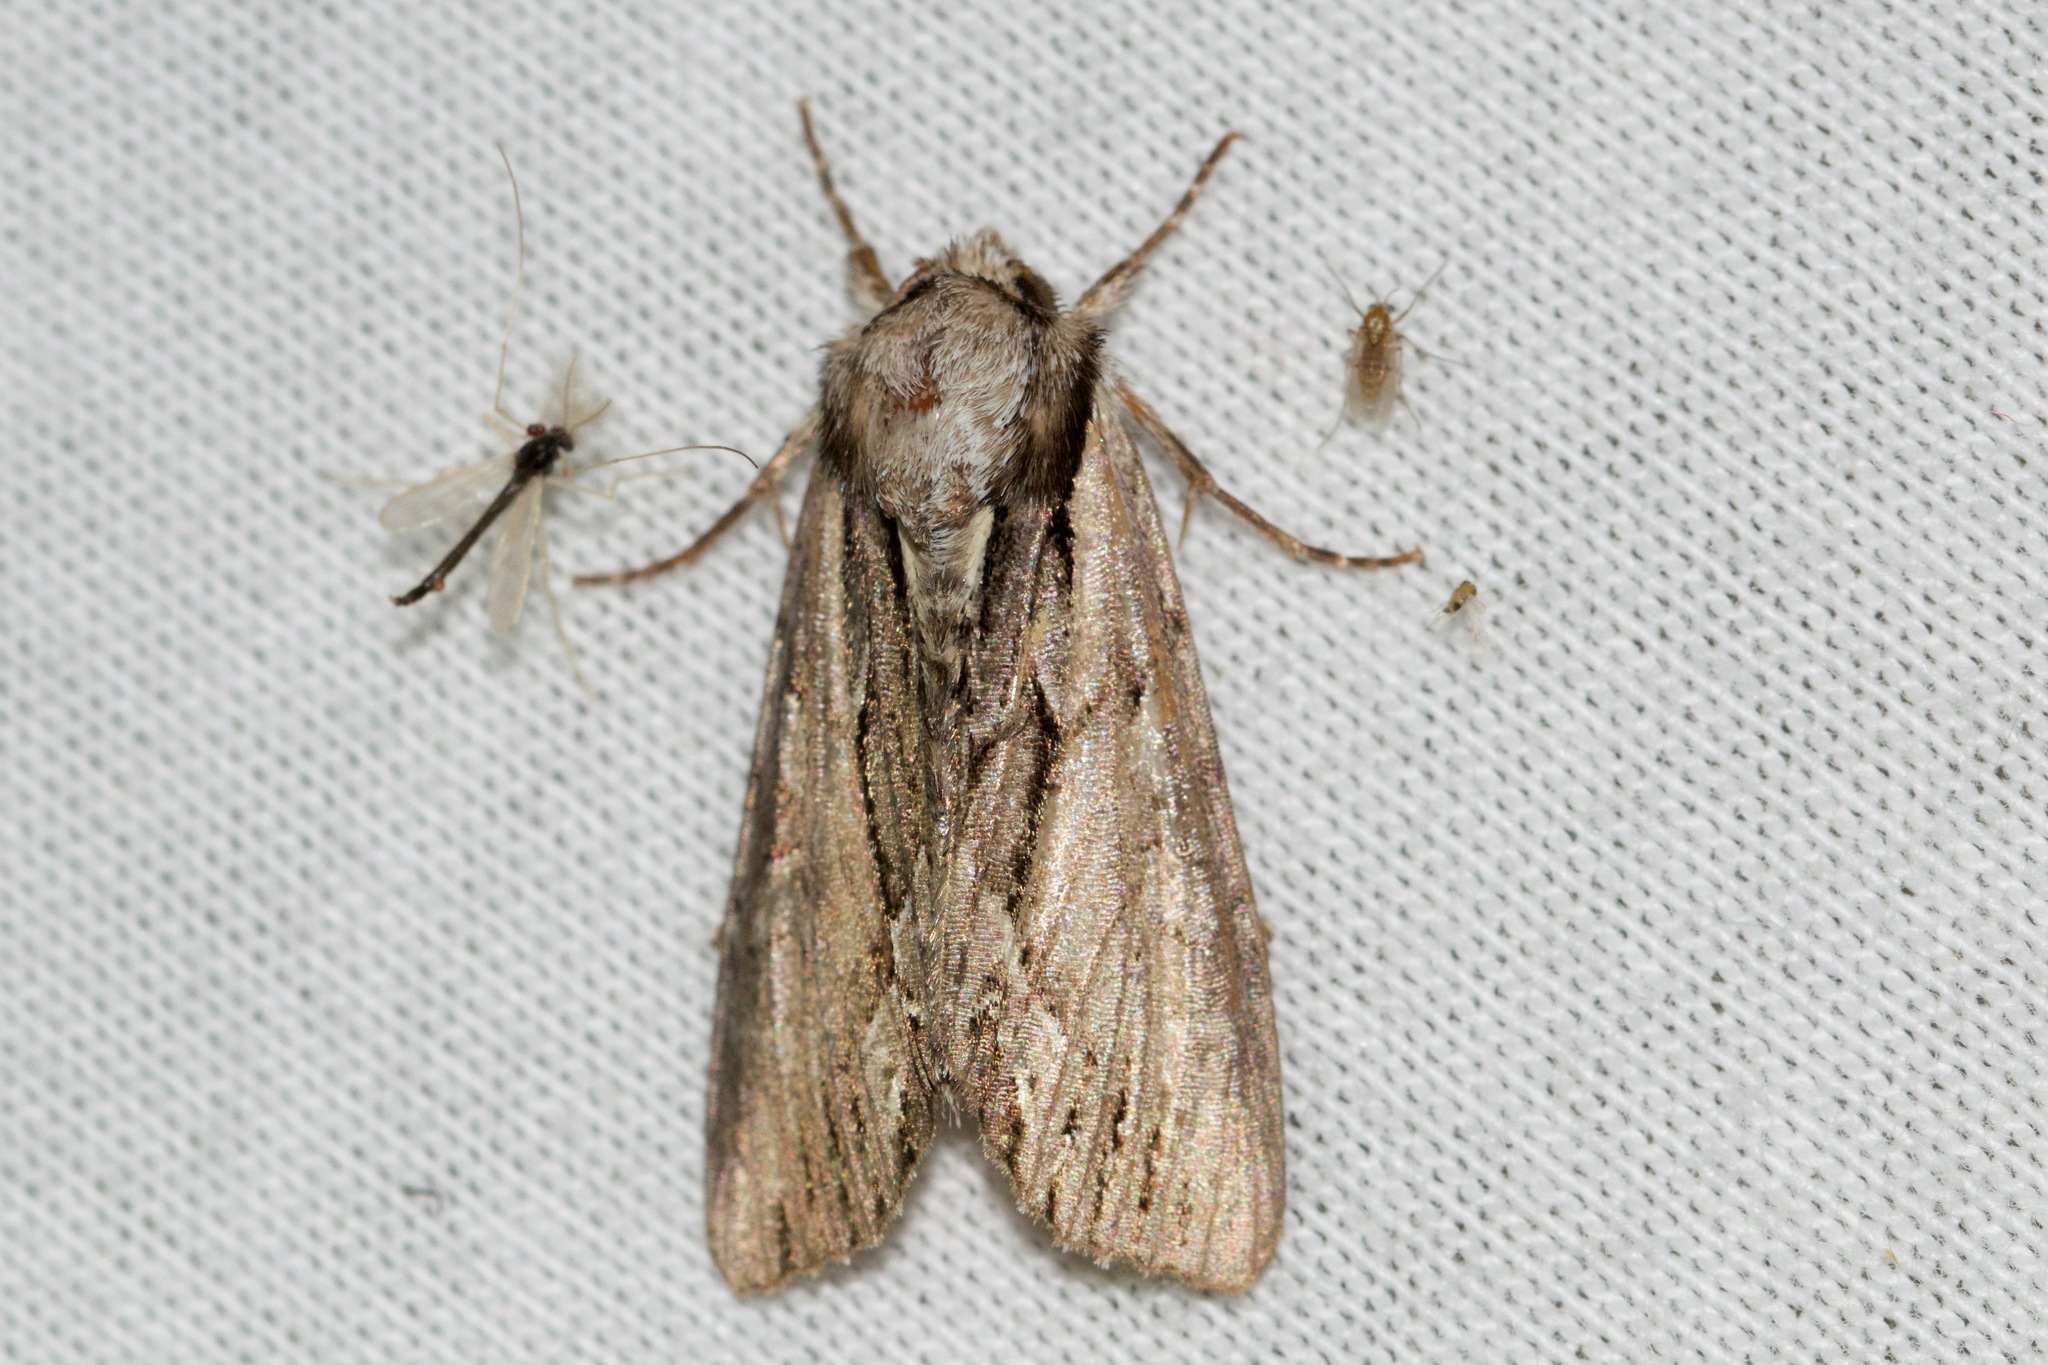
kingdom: Animalia
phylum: Arthropoda
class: Insecta
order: Lepidoptera
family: Noctuidae
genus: Hyppa
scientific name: Hyppa xylinoides
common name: Common hyppa moth
